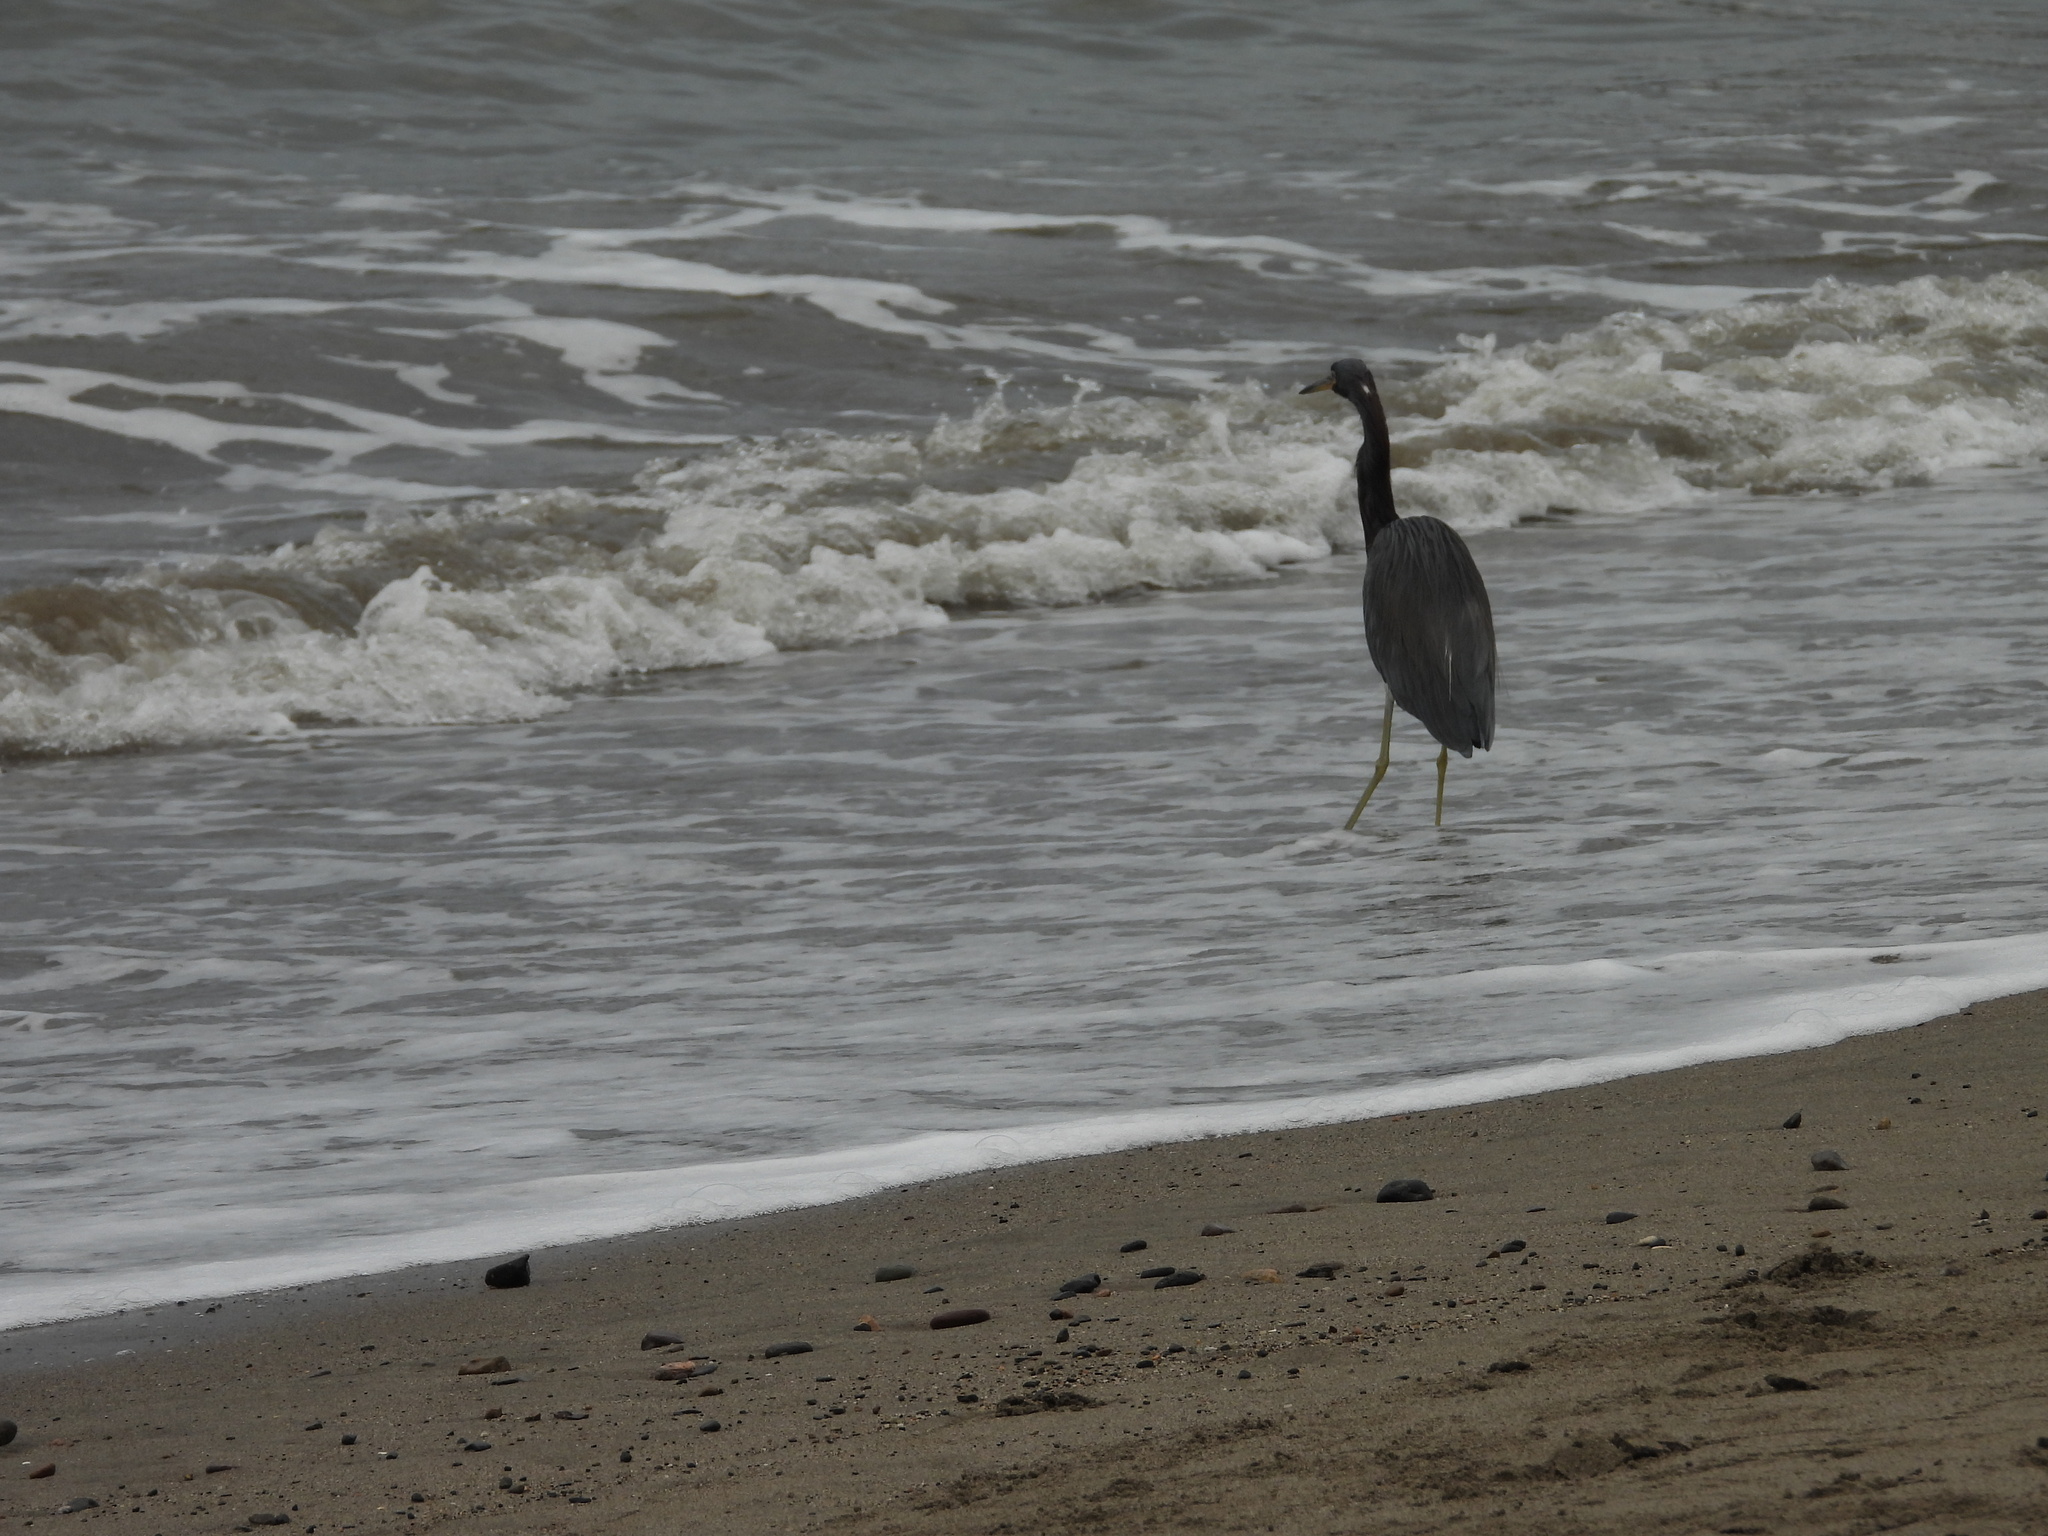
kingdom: Animalia
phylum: Chordata
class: Aves
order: Pelecaniformes
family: Ardeidae
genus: Egretta
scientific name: Egretta caerulea
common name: Little blue heron
